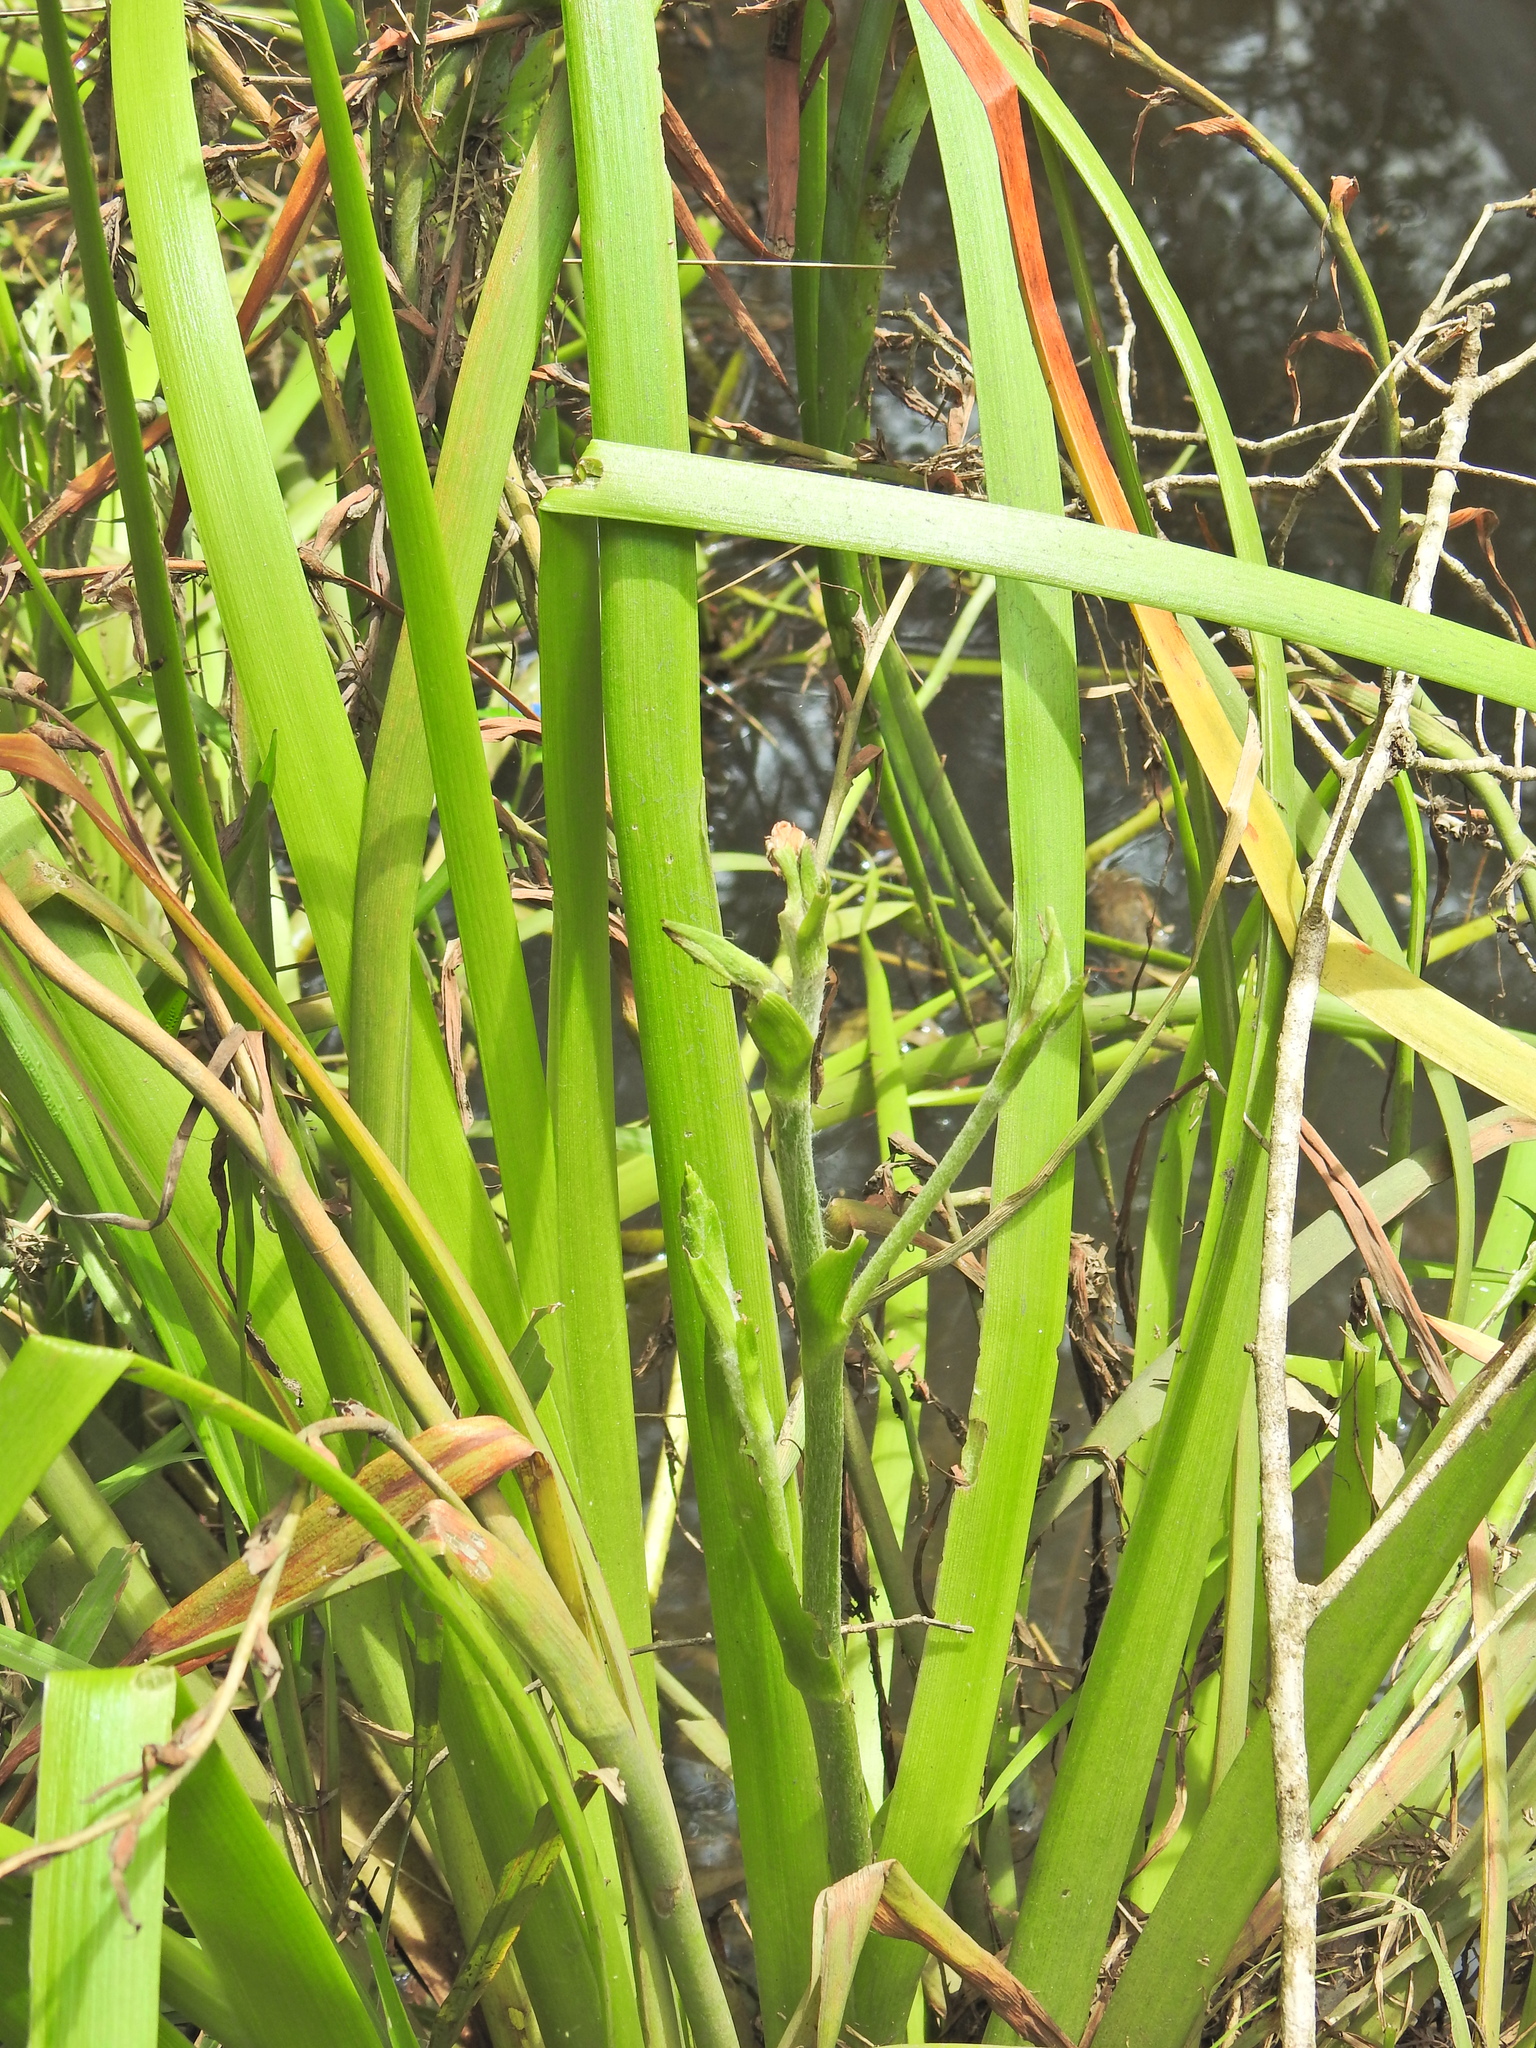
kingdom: Plantae
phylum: Tracheophyta
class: Liliopsida
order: Commelinales
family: Philydraceae
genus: Philydrum
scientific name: Philydrum lanuginosum
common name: Woolly frog's mouth
